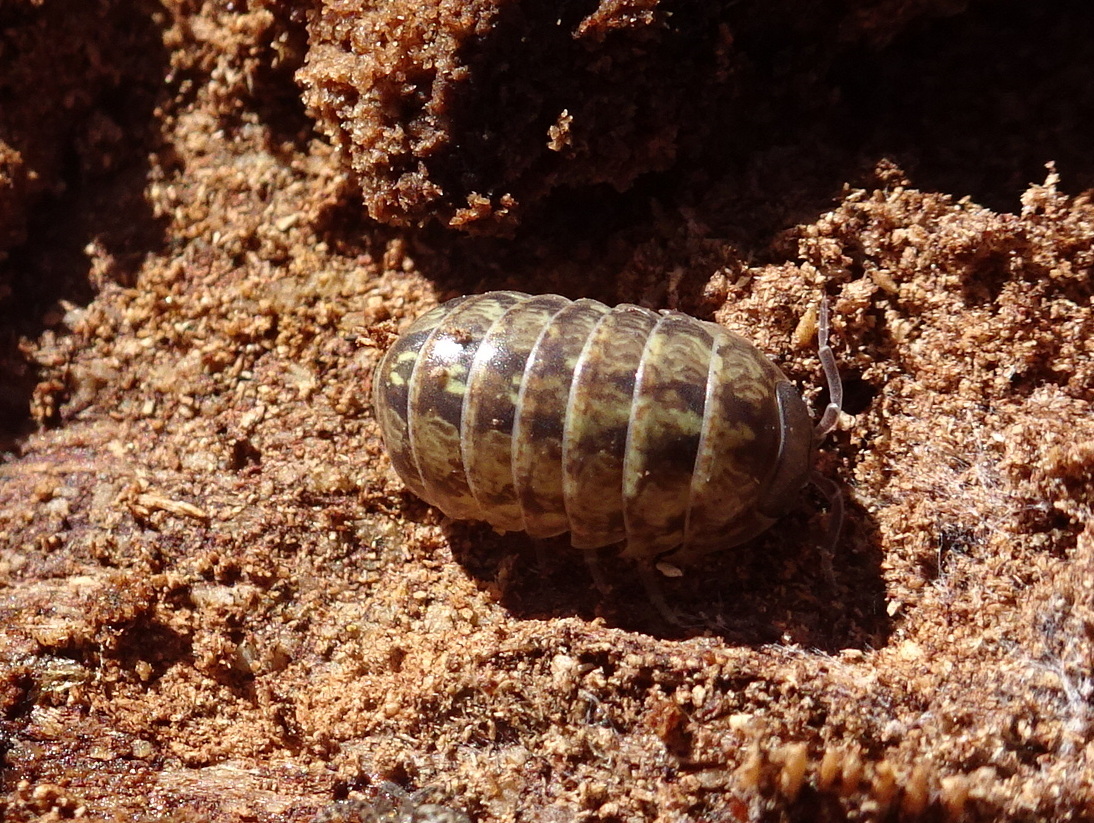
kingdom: Animalia
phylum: Arthropoda
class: Malacostraca
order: Isopoda
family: Armadillidiidae
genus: Armadillidium
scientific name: Armadillidium vulgare
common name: Common pill woodlouse
